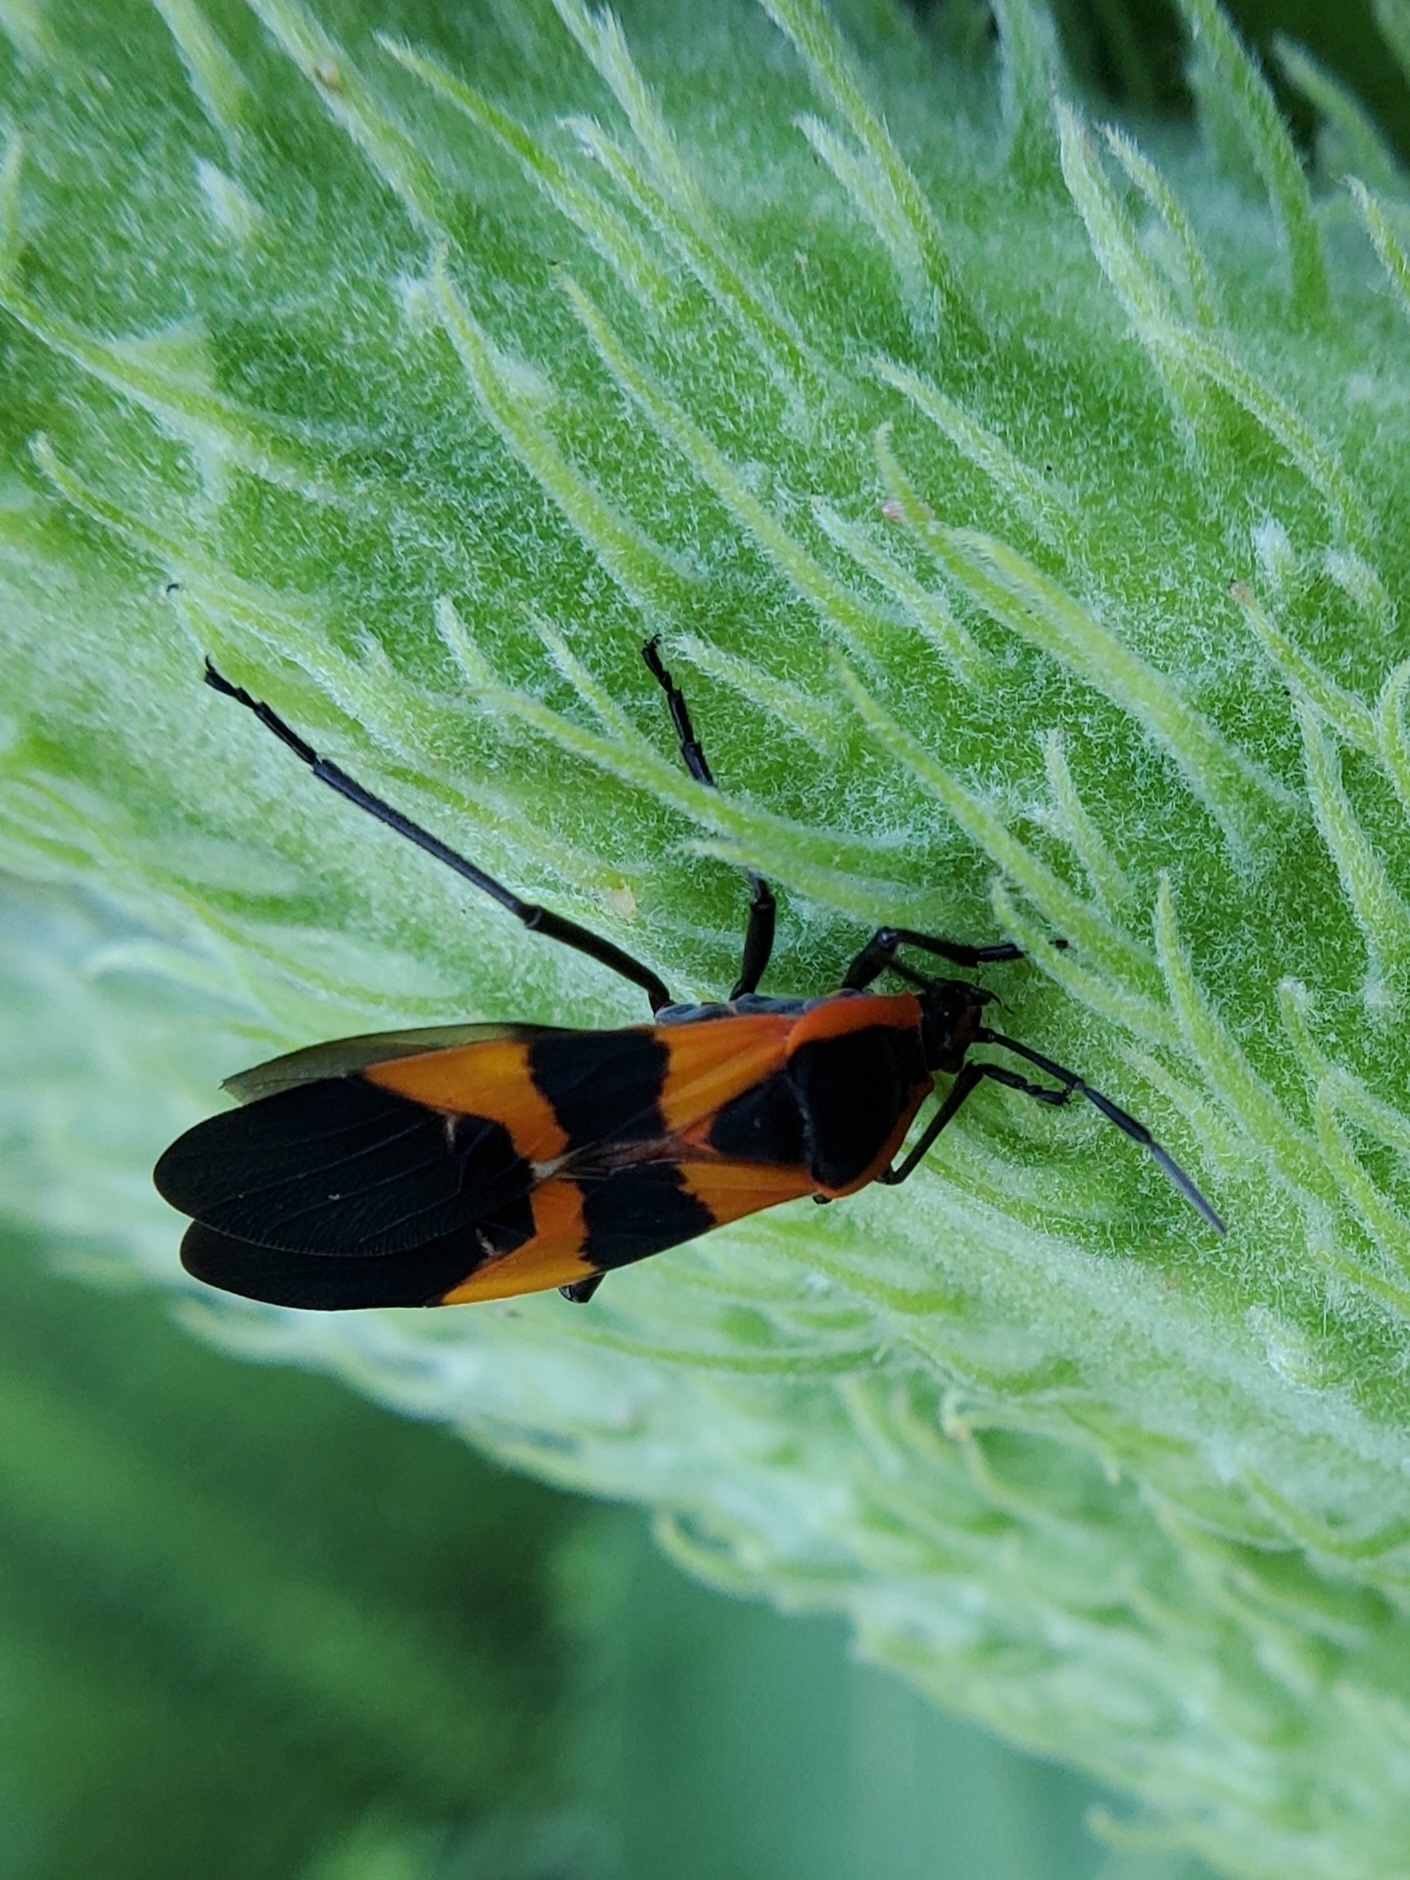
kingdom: Animalia
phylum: Arthropoda
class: Insecta
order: Hemiptera
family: Lygaeidae
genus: Oncopeltus
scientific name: Oncopeltus fasciatus
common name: Large milkweed bug
